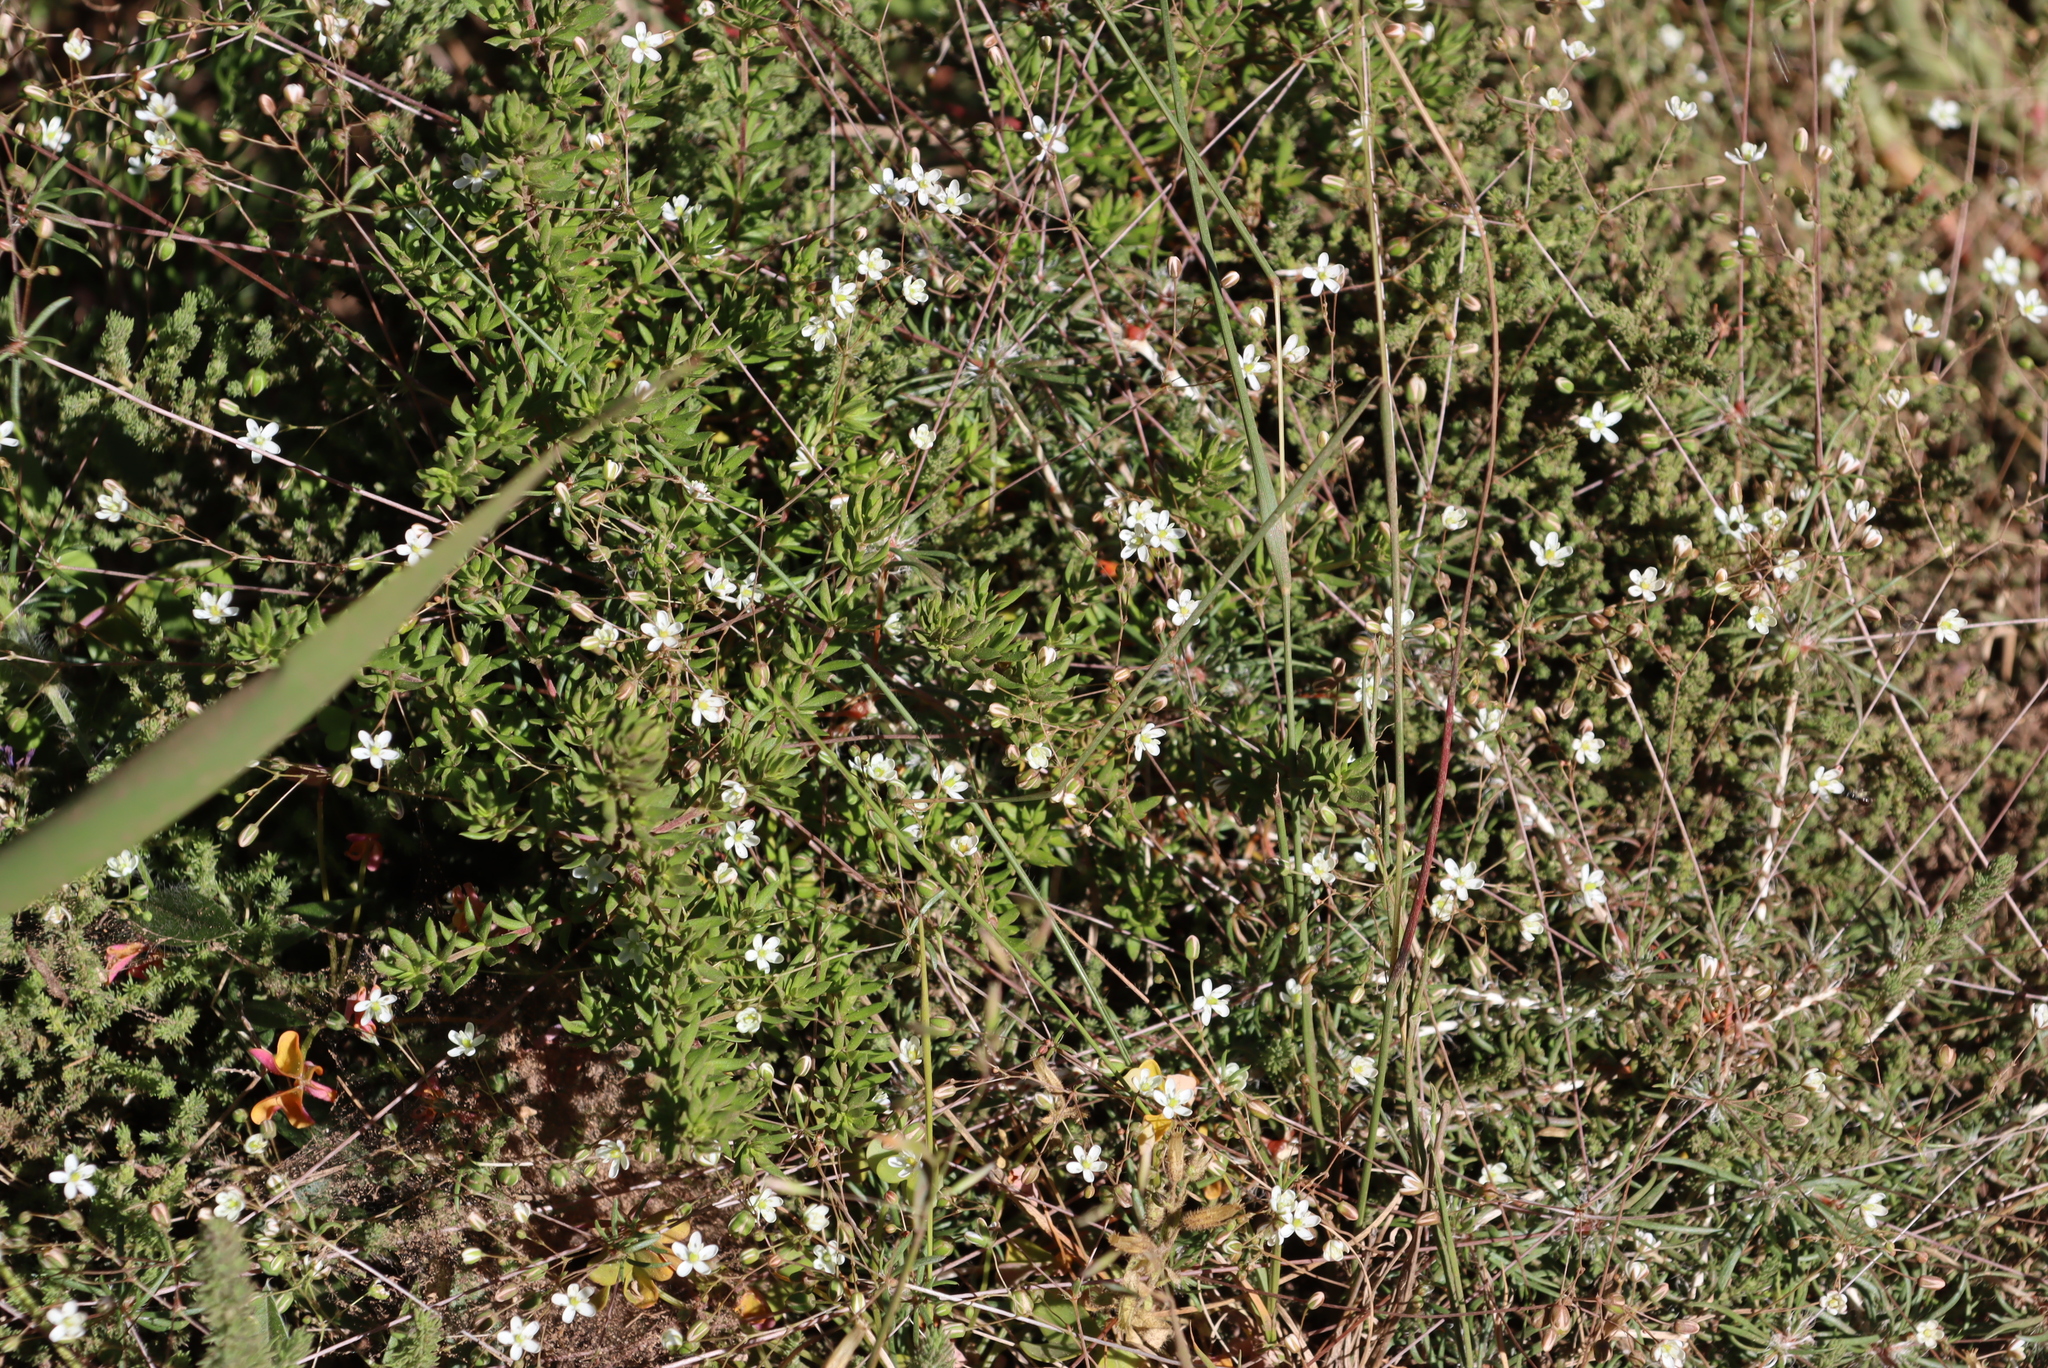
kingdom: Plantae
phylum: Tracheophyta
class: Magnoliopsida
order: Caryophyllales
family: Molluginaceae
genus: Pharnaceum
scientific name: Pharnaceum elongatum
